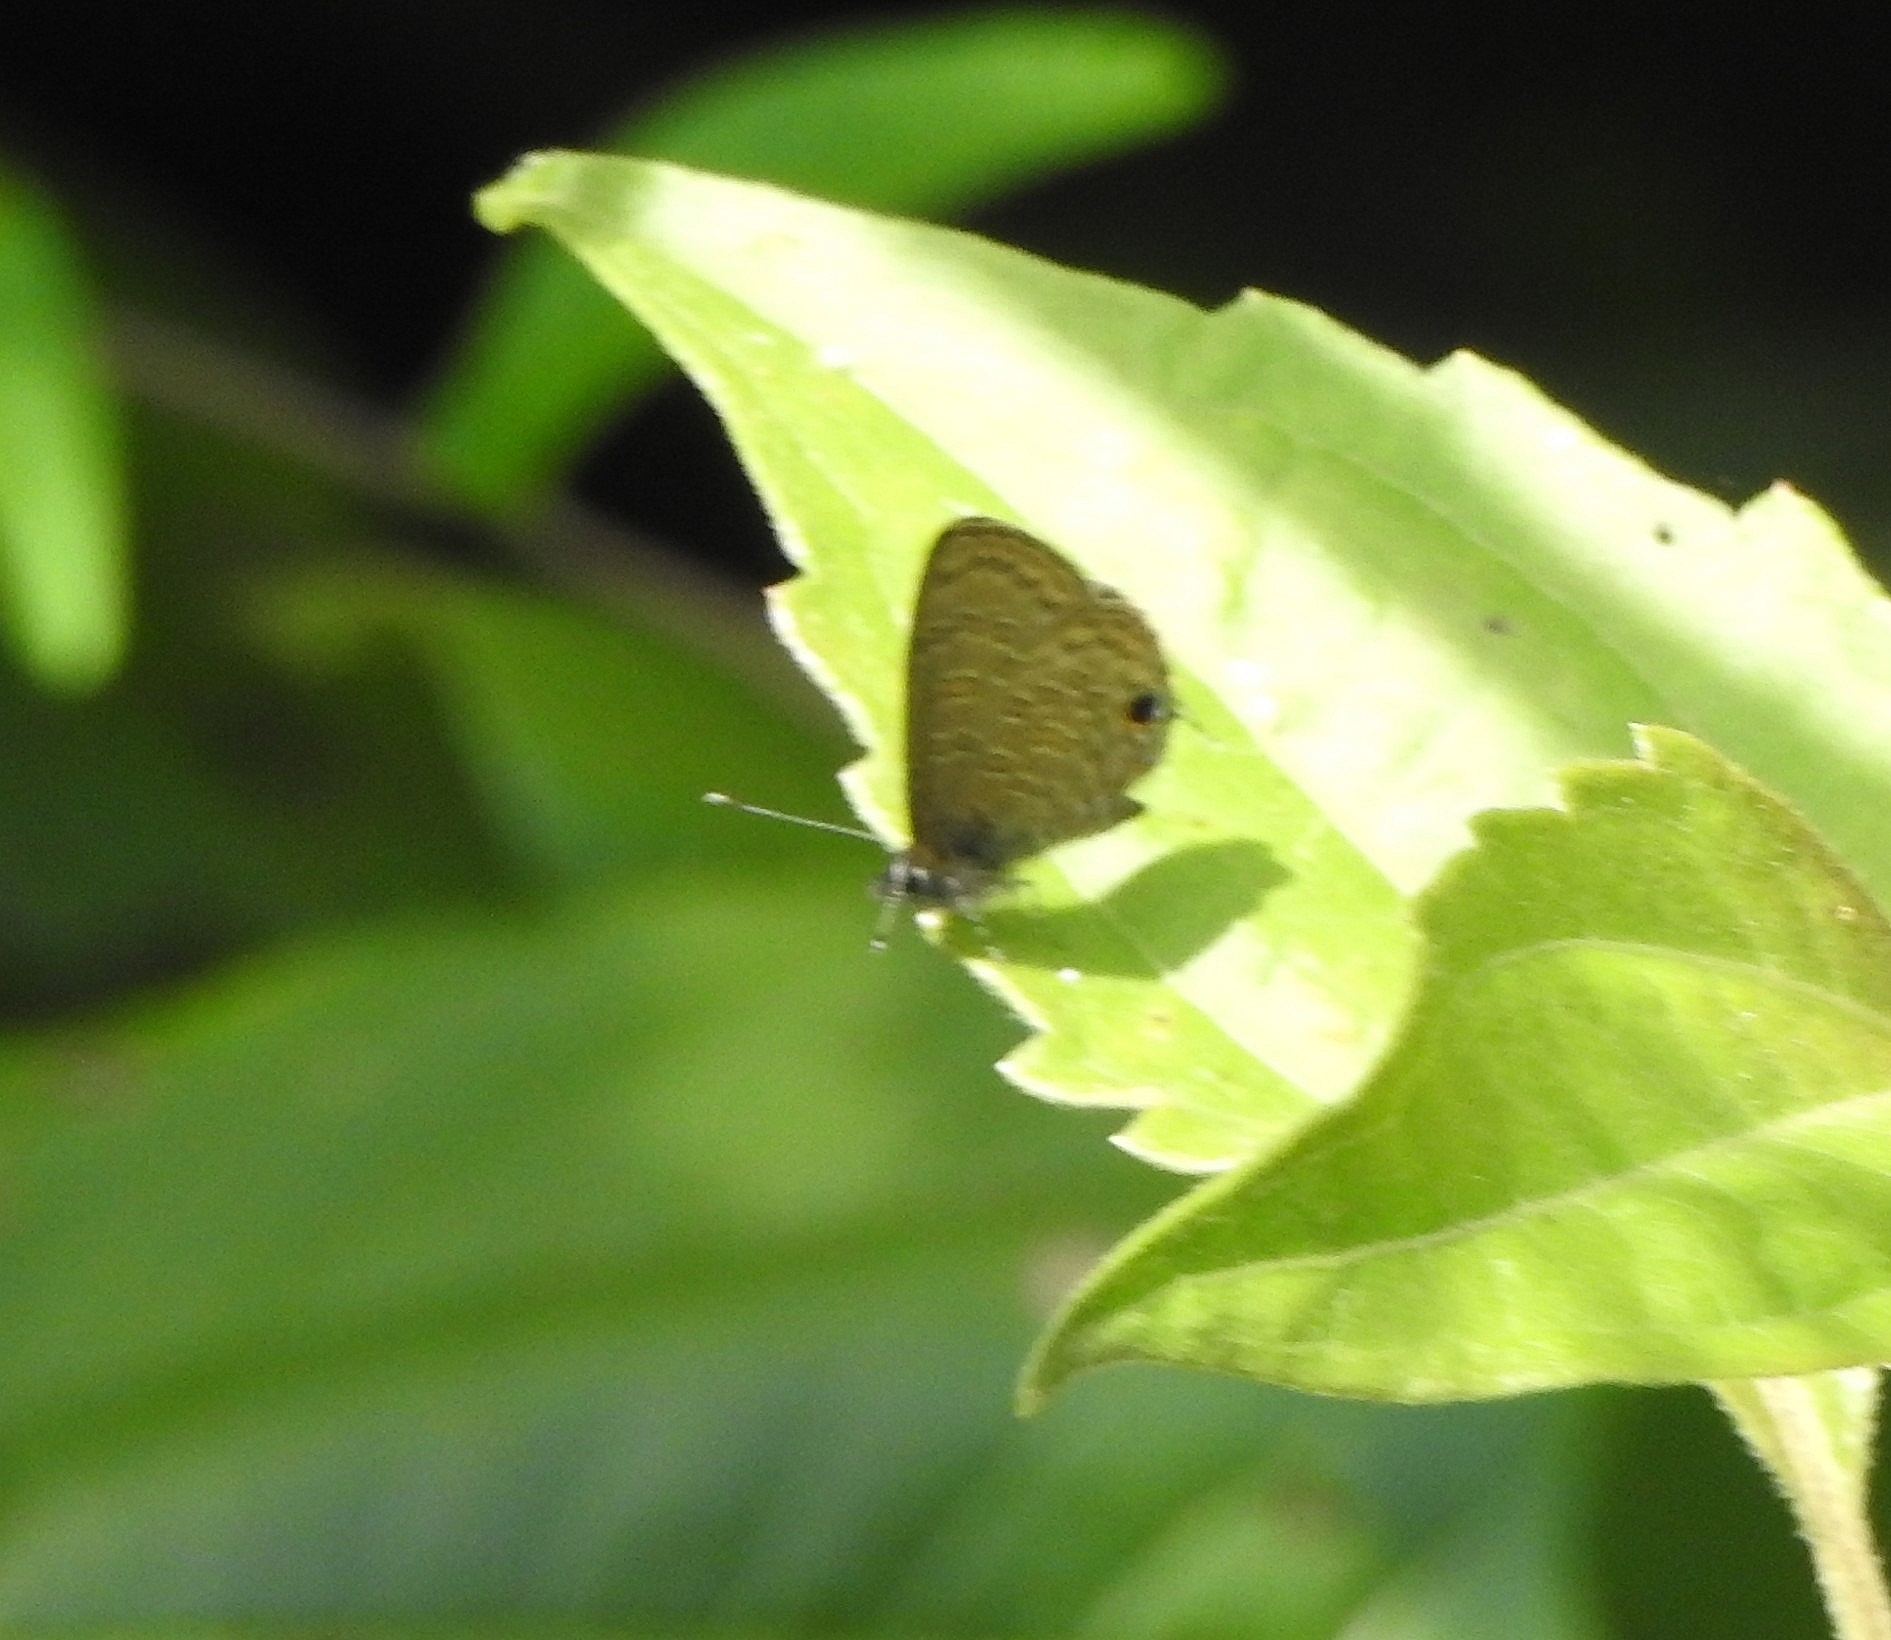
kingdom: Animalia
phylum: Arthropoda
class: Insecta
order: Lepidoptera
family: Lycaenidae
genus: Prosotas
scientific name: Prosotas nora
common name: Common line blue
